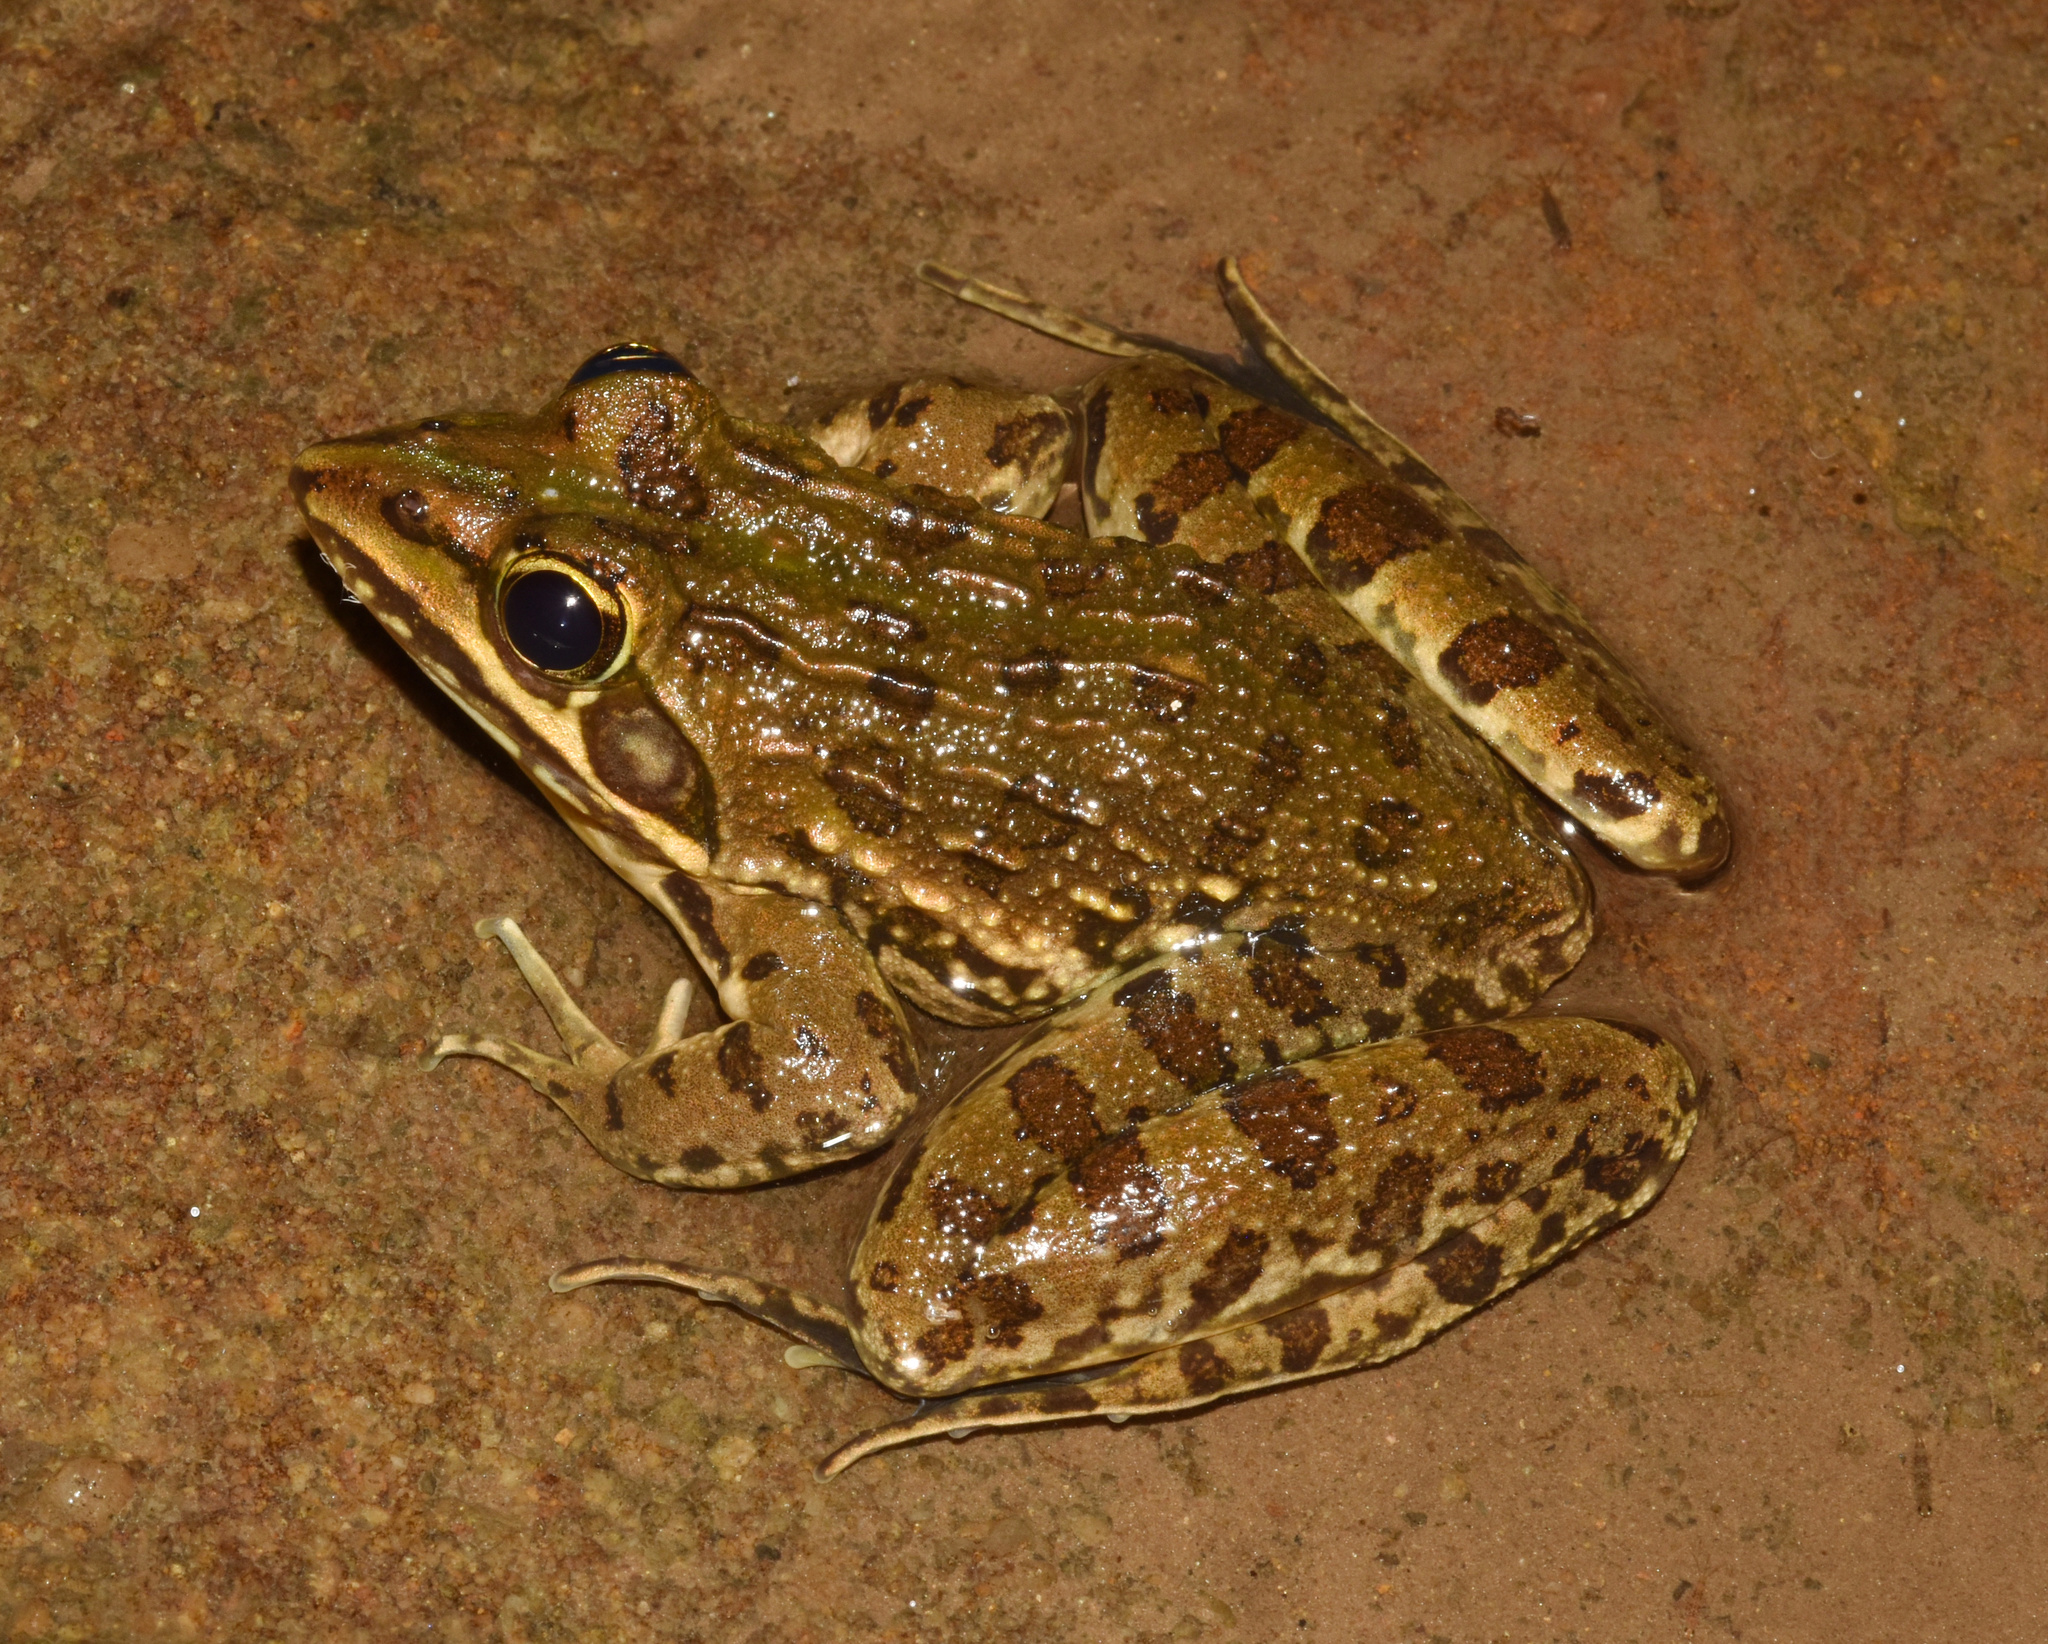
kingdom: Animalia
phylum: Chordata
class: Amphibia
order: Anura
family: Pyxicephalidae
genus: Amietia
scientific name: Amietia delalandii
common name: Delalande's river frog
